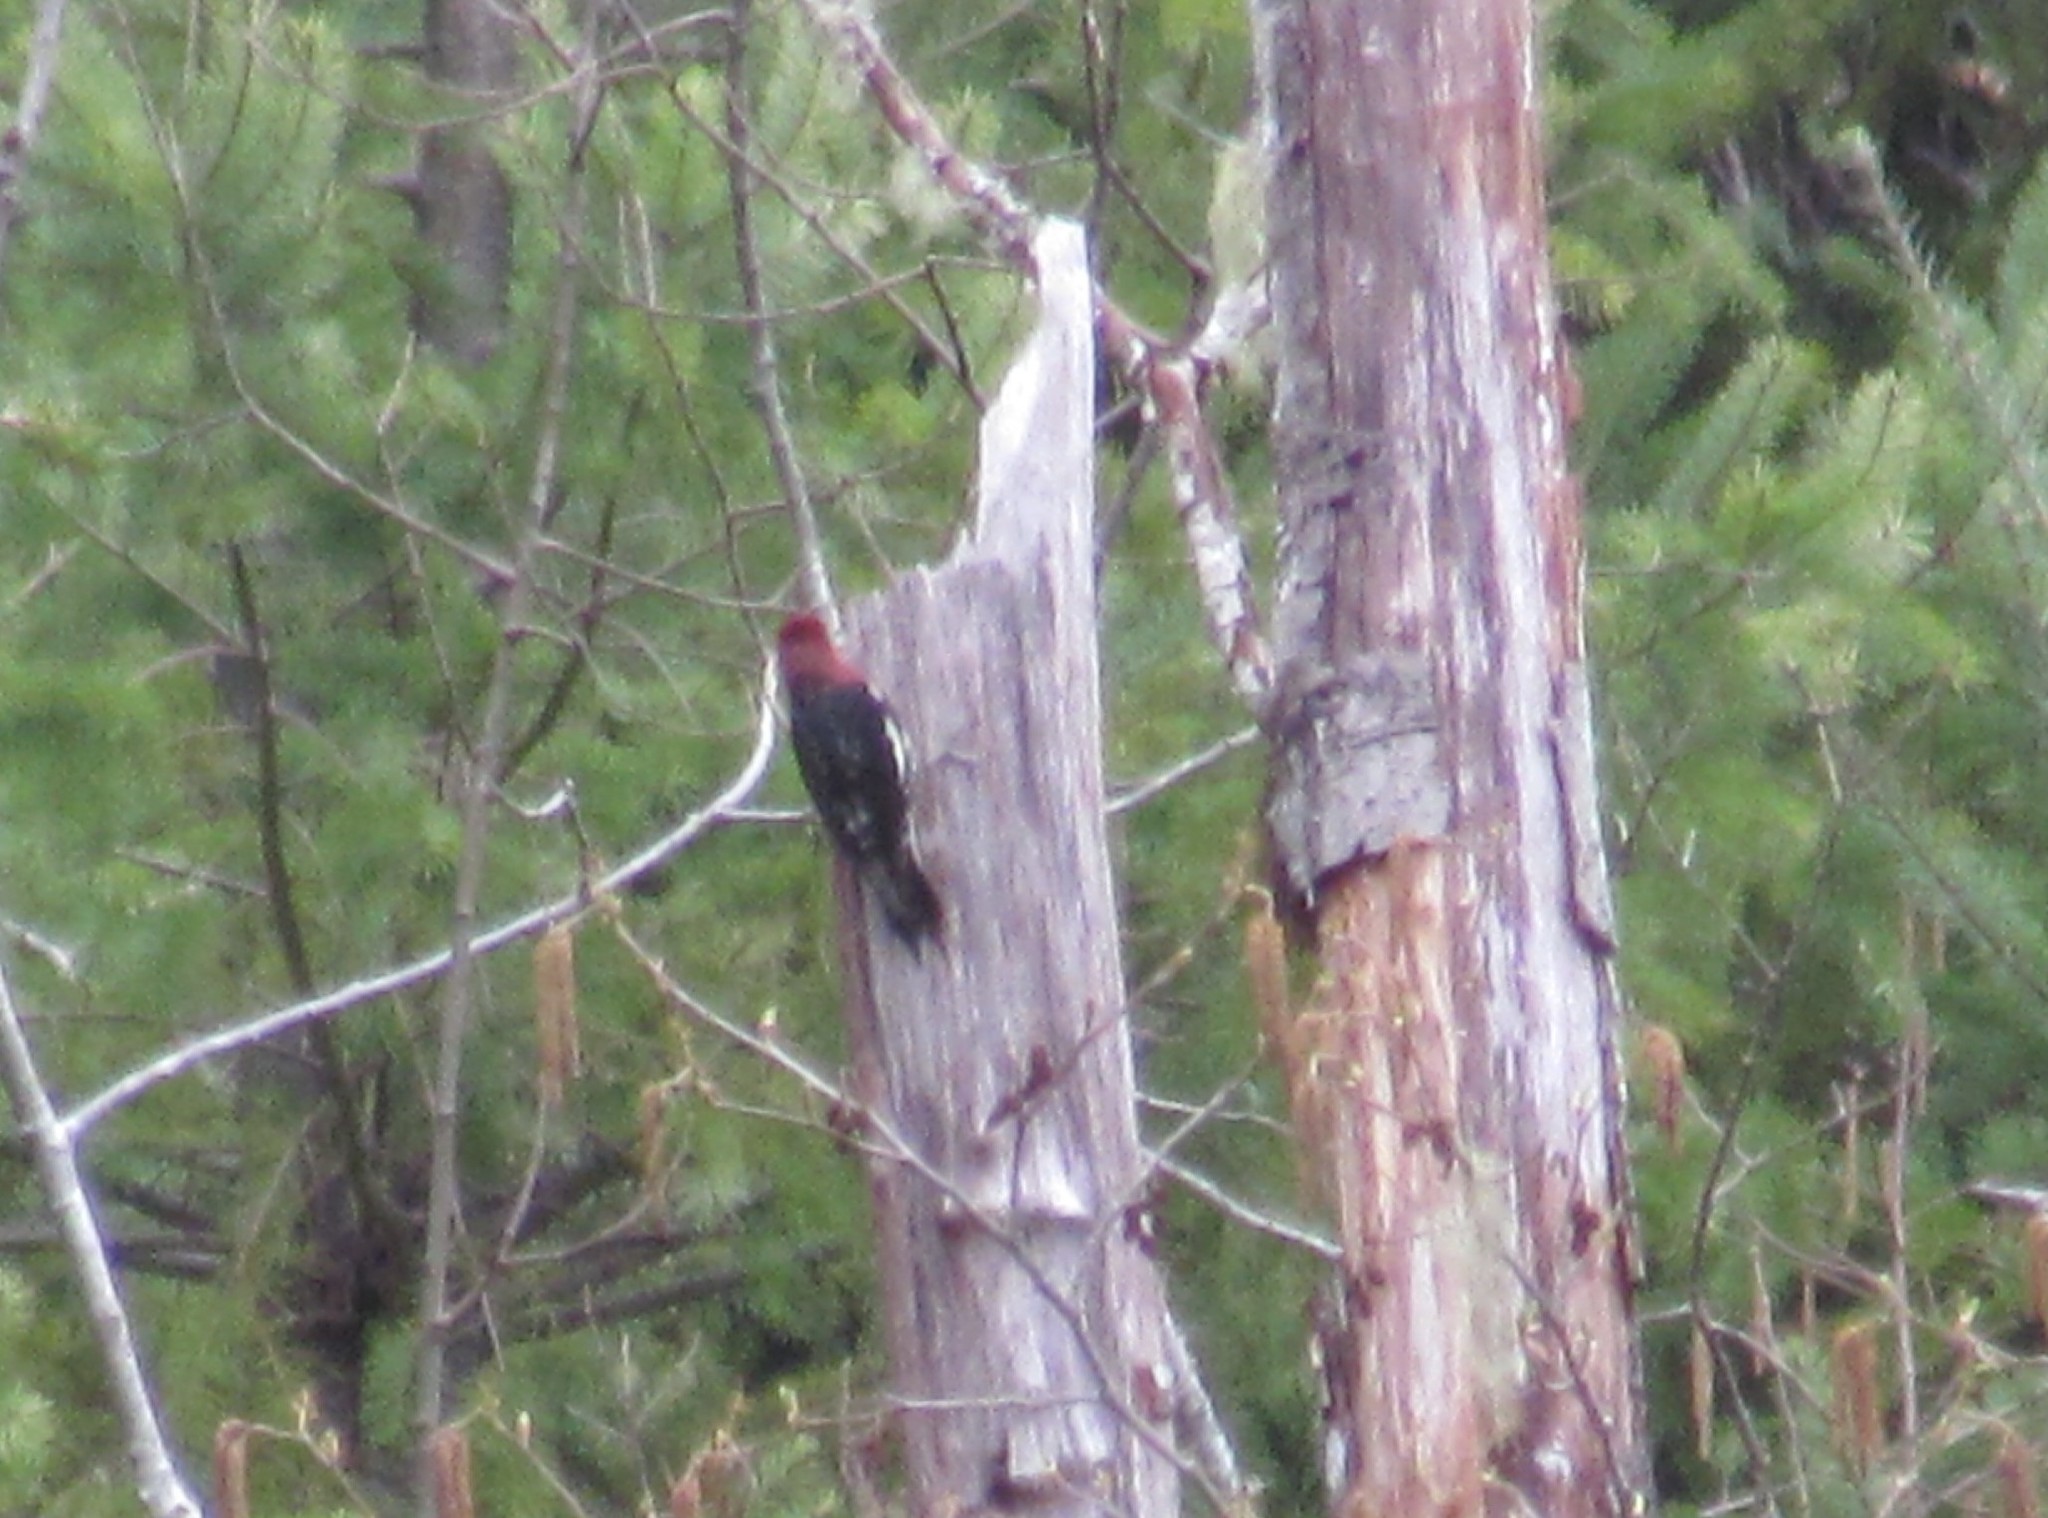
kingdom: Animalia
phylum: Chordata
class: Aves
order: Piciformes
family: Picidae
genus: Sphyrapicus
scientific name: Sphyrapicus ruber
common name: Red-breasted sapsucker
